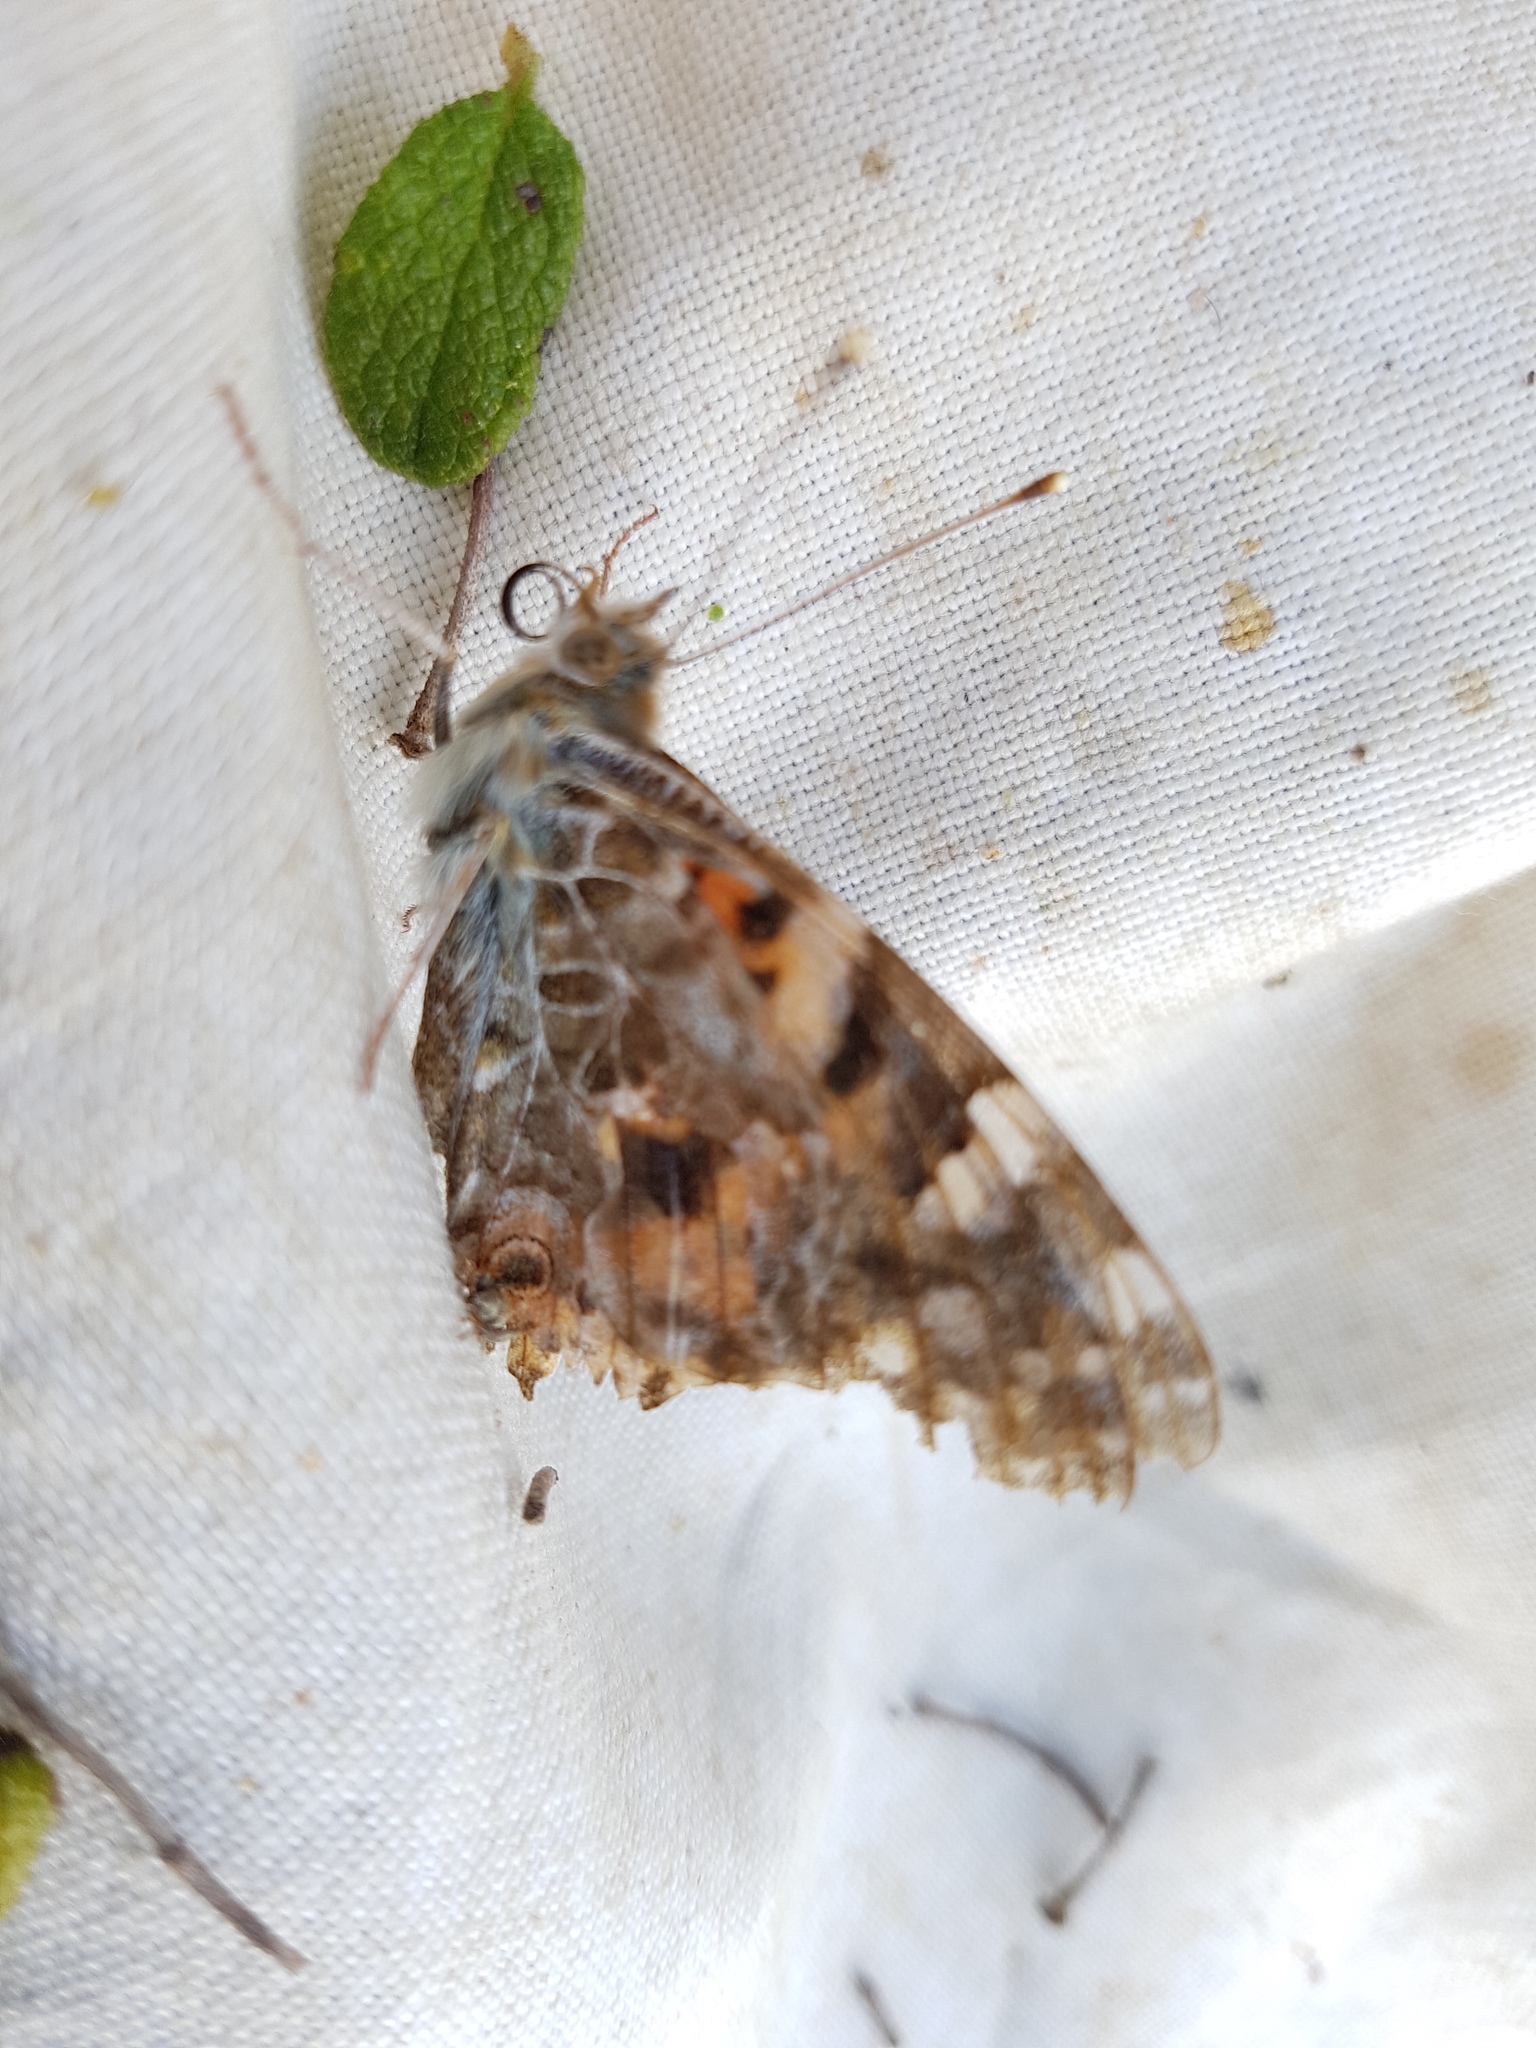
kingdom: Animalia
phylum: Arthropoda
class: Insecta
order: Lepidoptera
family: Nymphalidae
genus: Vanessa
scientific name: Vanessa cardui
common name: Painted lady
